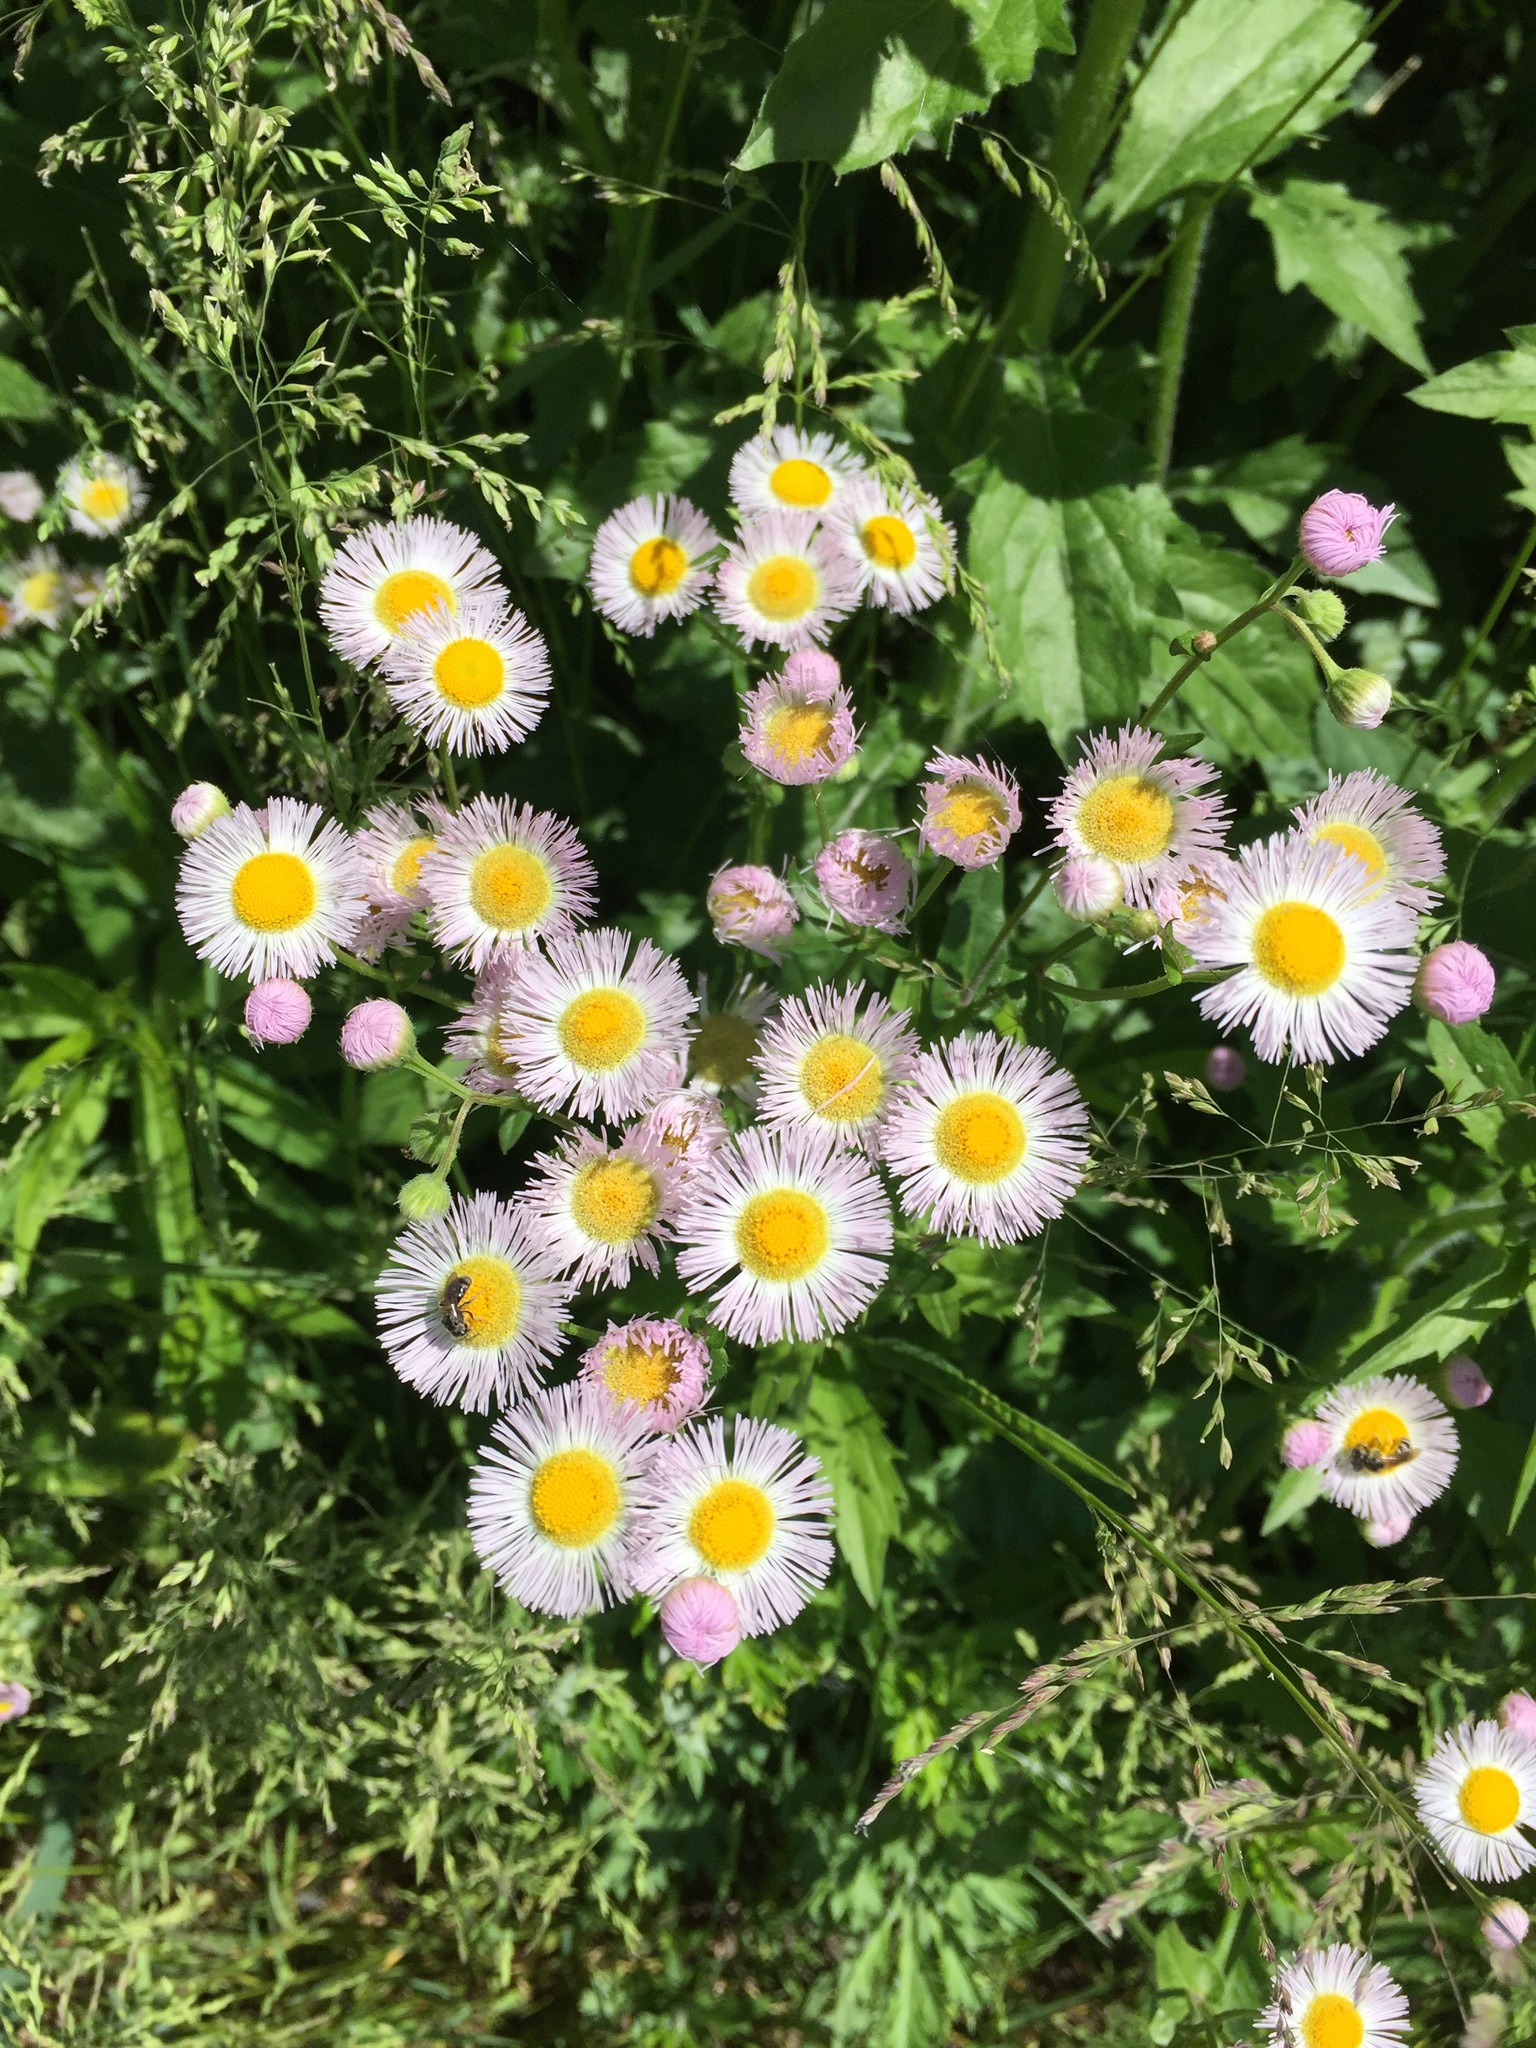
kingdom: Plantae
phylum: Tracheophyta
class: Magnoliopsida
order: Asterales
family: Asteraceae
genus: Erigeron
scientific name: Erigeron philadelphicus
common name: Robin's-plantain
